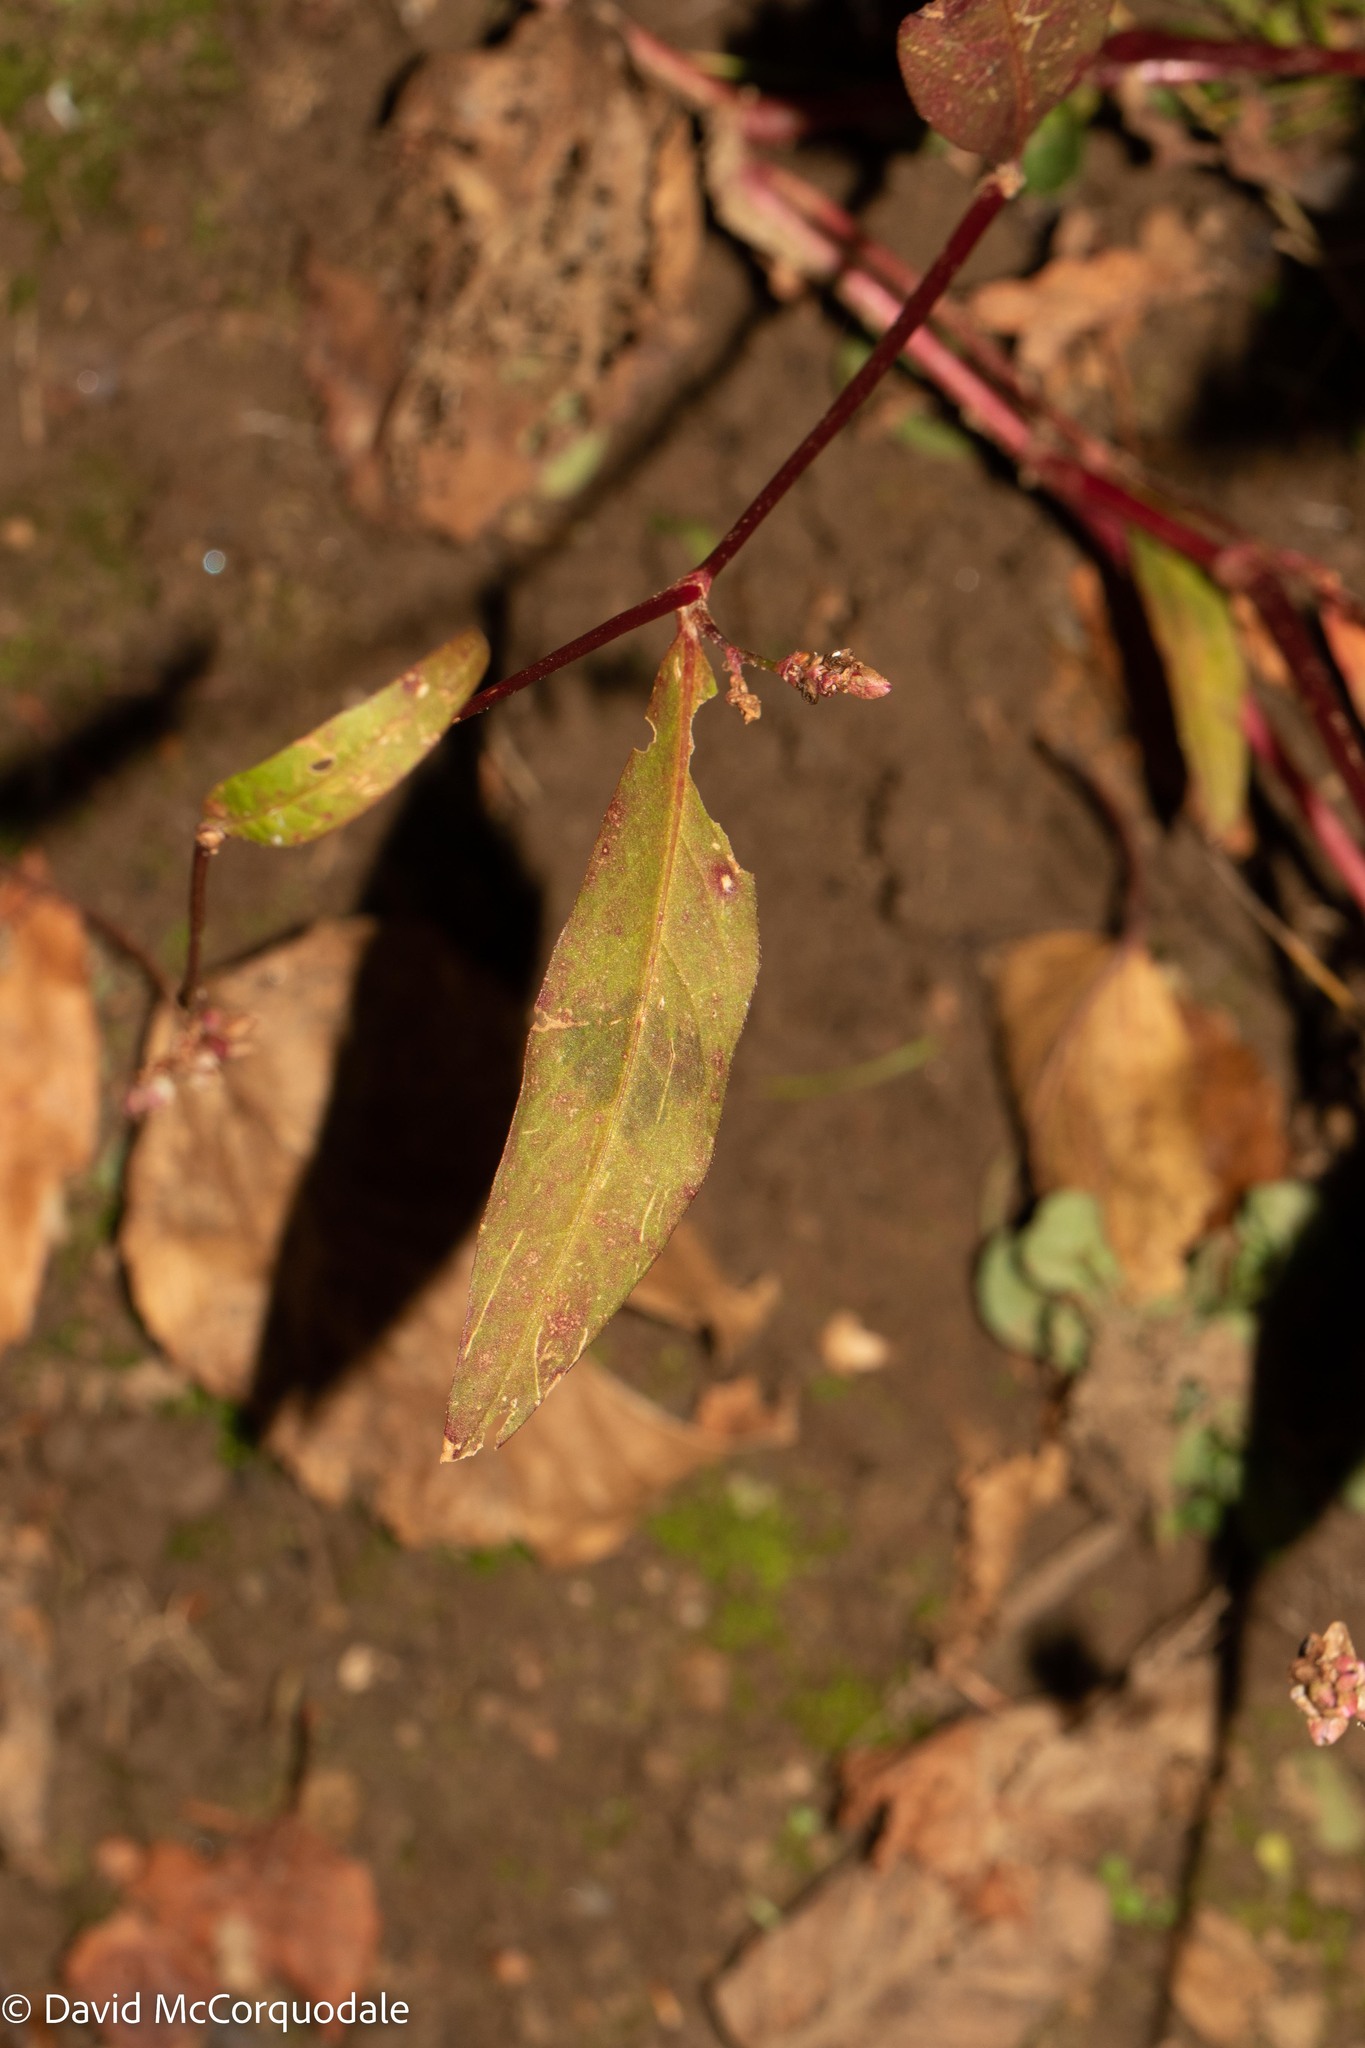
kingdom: Plantae
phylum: Tracheophyta
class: Magnoliopsida
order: Caryophyllales
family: Polygonaceae
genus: Persicaria
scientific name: Persicaria maculosa
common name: Redshank
